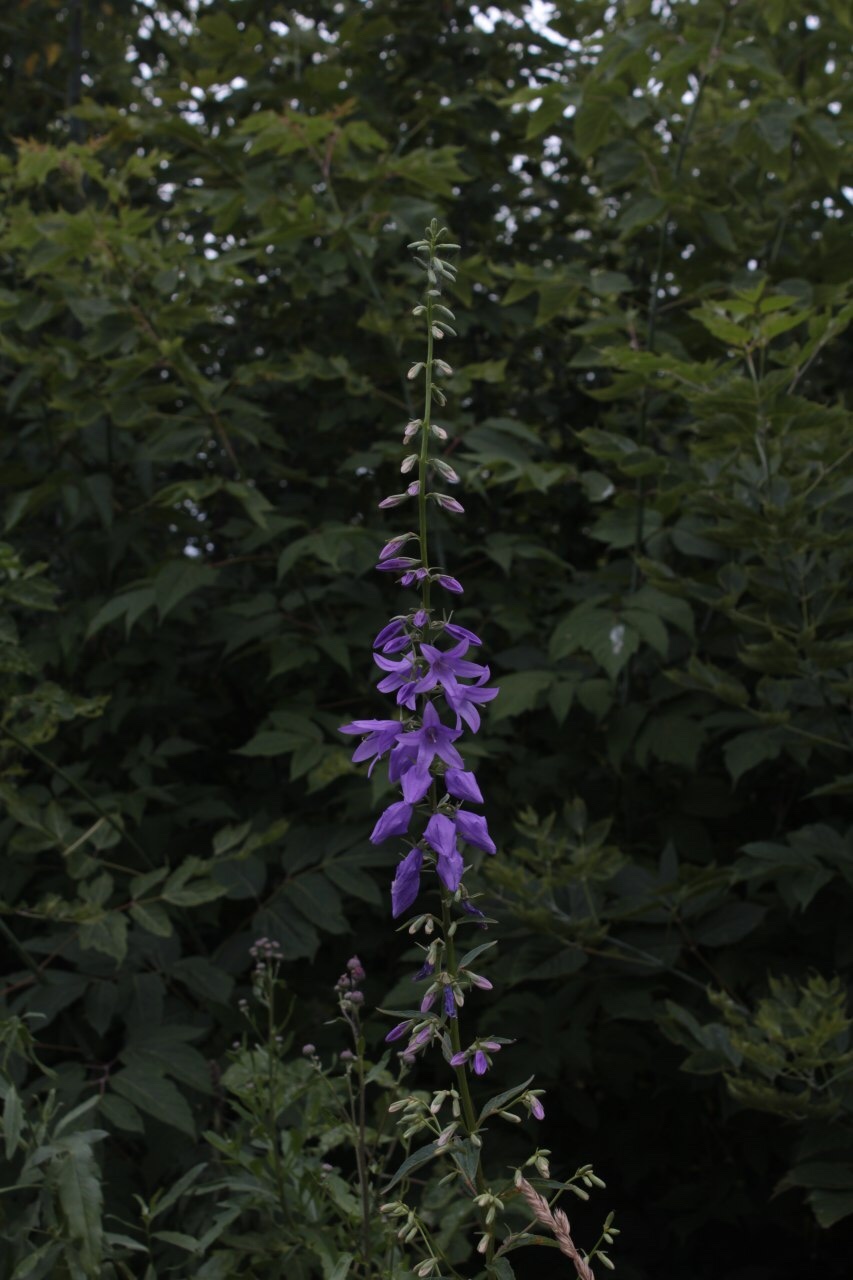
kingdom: Plantae
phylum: Tracheophyta
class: Magnoliopsida
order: Asterales
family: Campanulaceae
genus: Campanula
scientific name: Campanula rapunculoides
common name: Creeping bellflower
